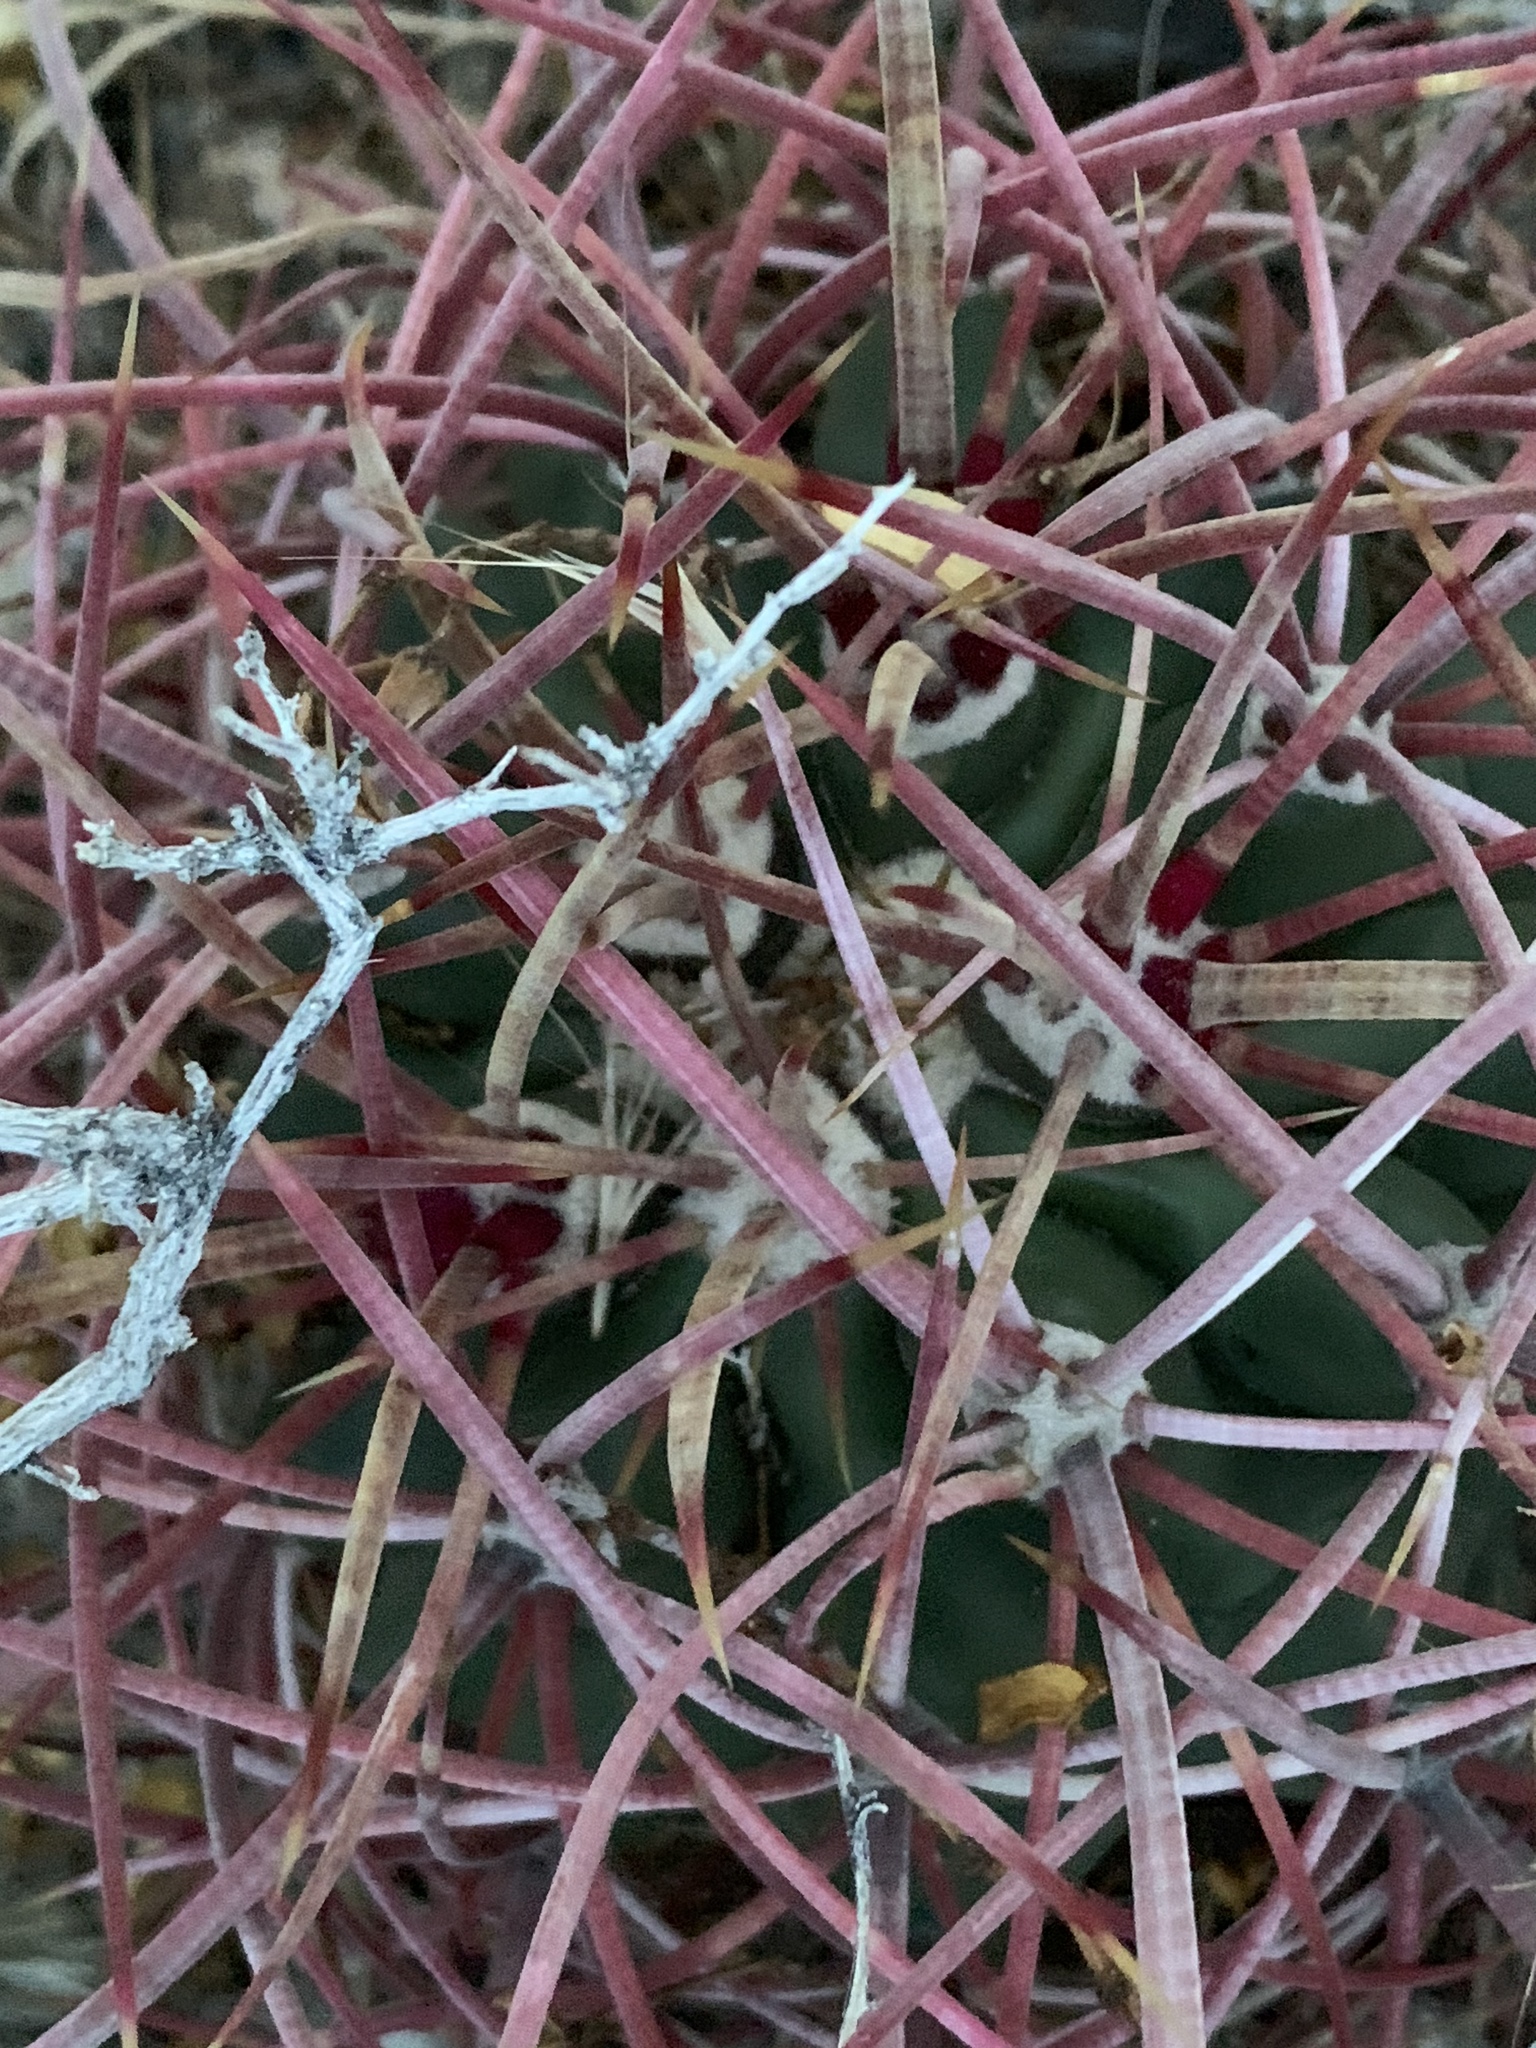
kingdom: Plantae
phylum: Tracheophyta
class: Magnoliopsida
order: Caryophyllales
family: Cactaceae
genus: Echinocactus
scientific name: Echinocactus polycephalus
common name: Cottontop cactus
